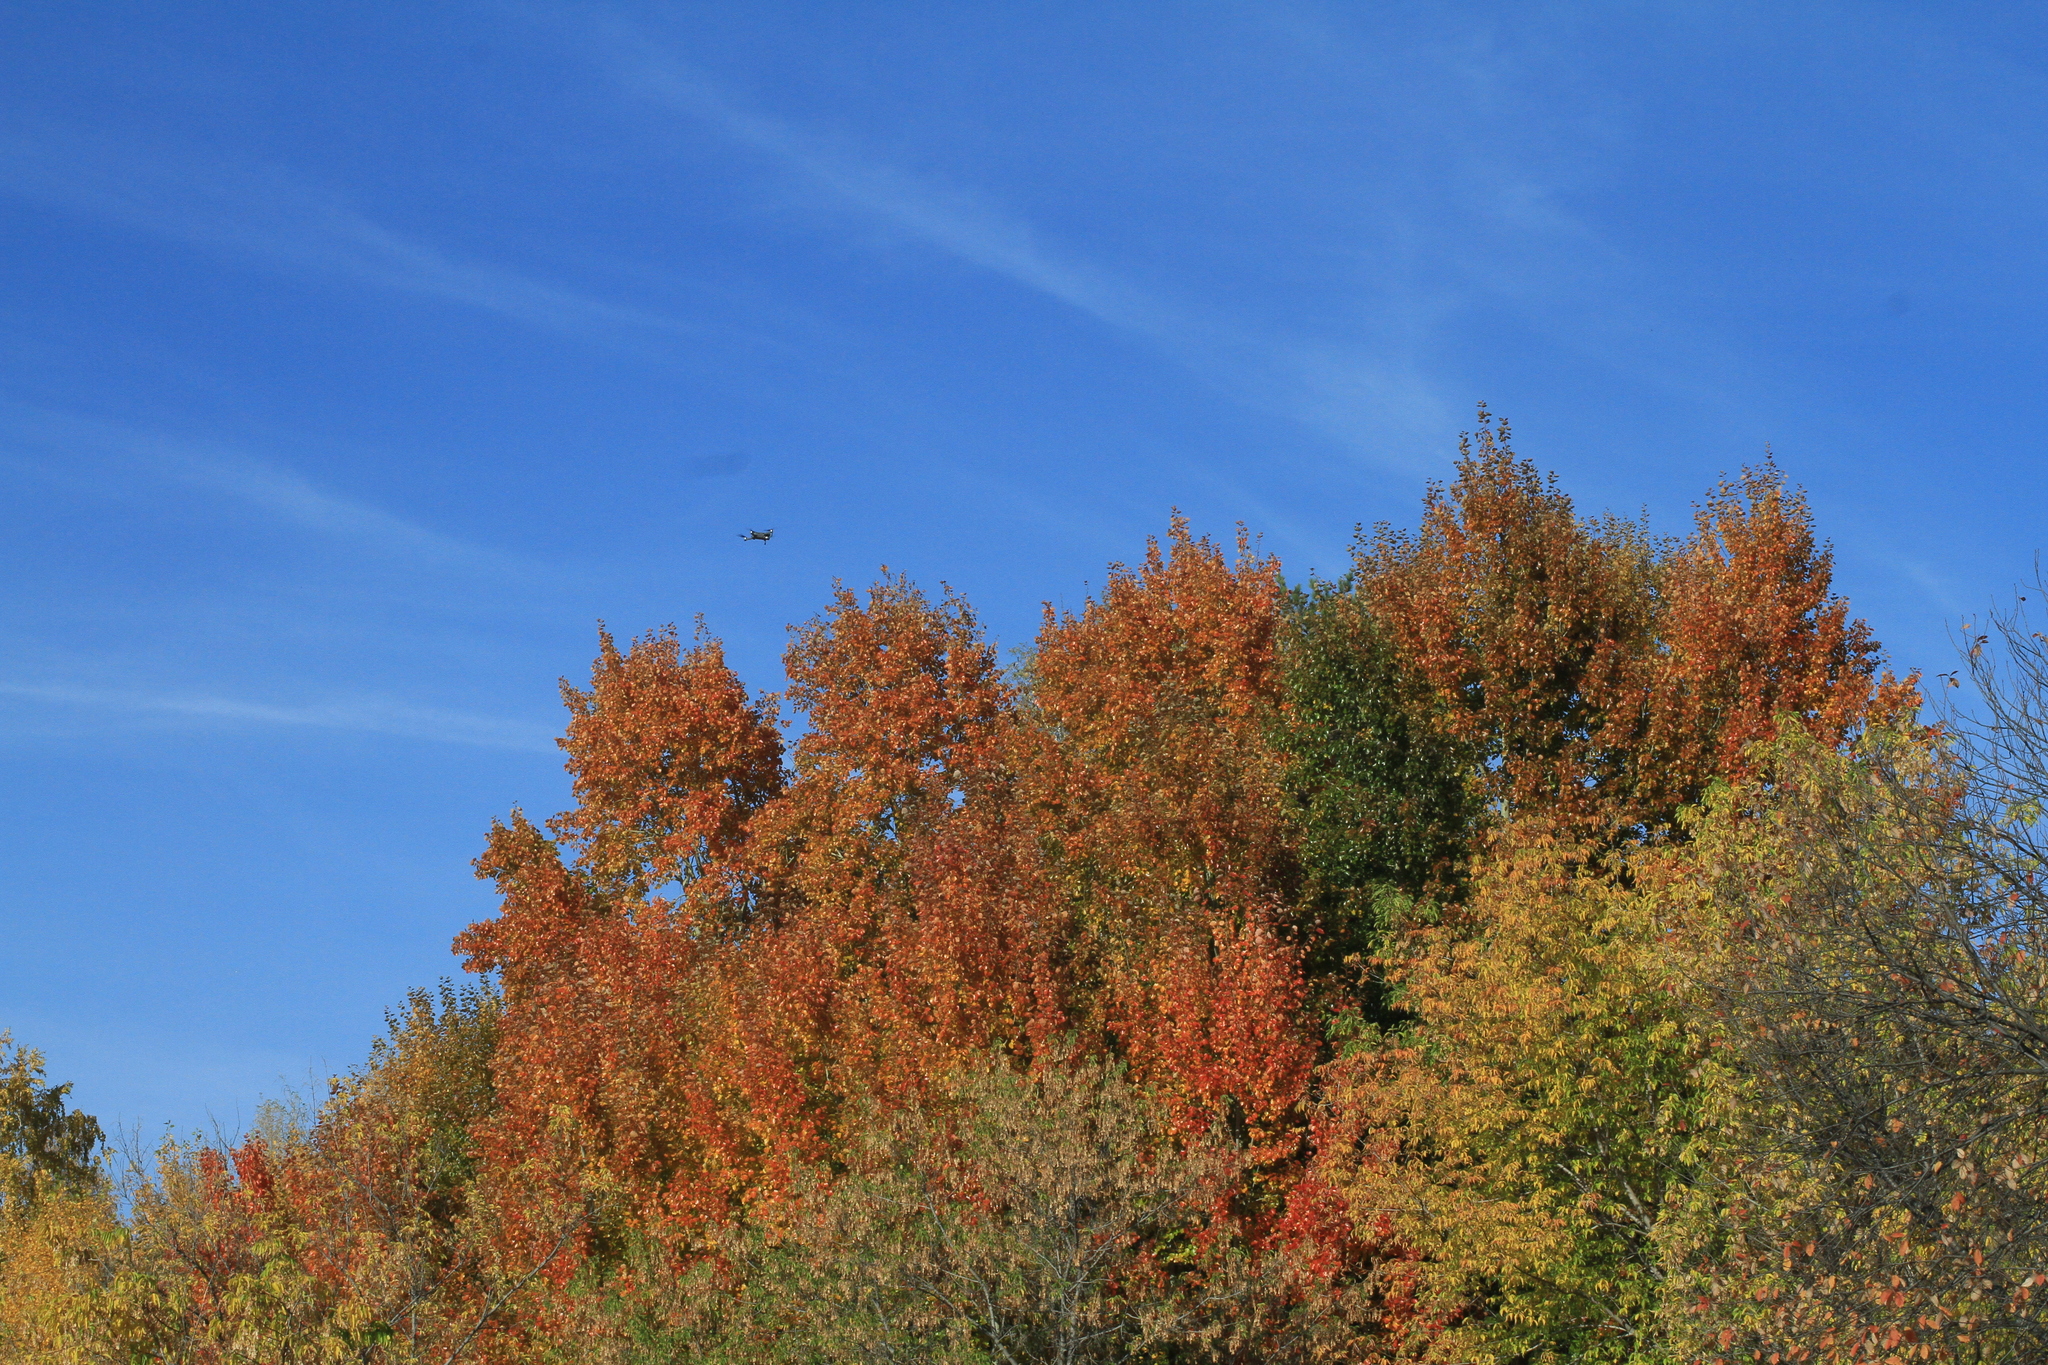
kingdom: Plantae
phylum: Tracheophyta
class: Magnoliopsida
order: Malpighiales
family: Salicaceae
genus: Populus
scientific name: Populus tremula
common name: European aspen
